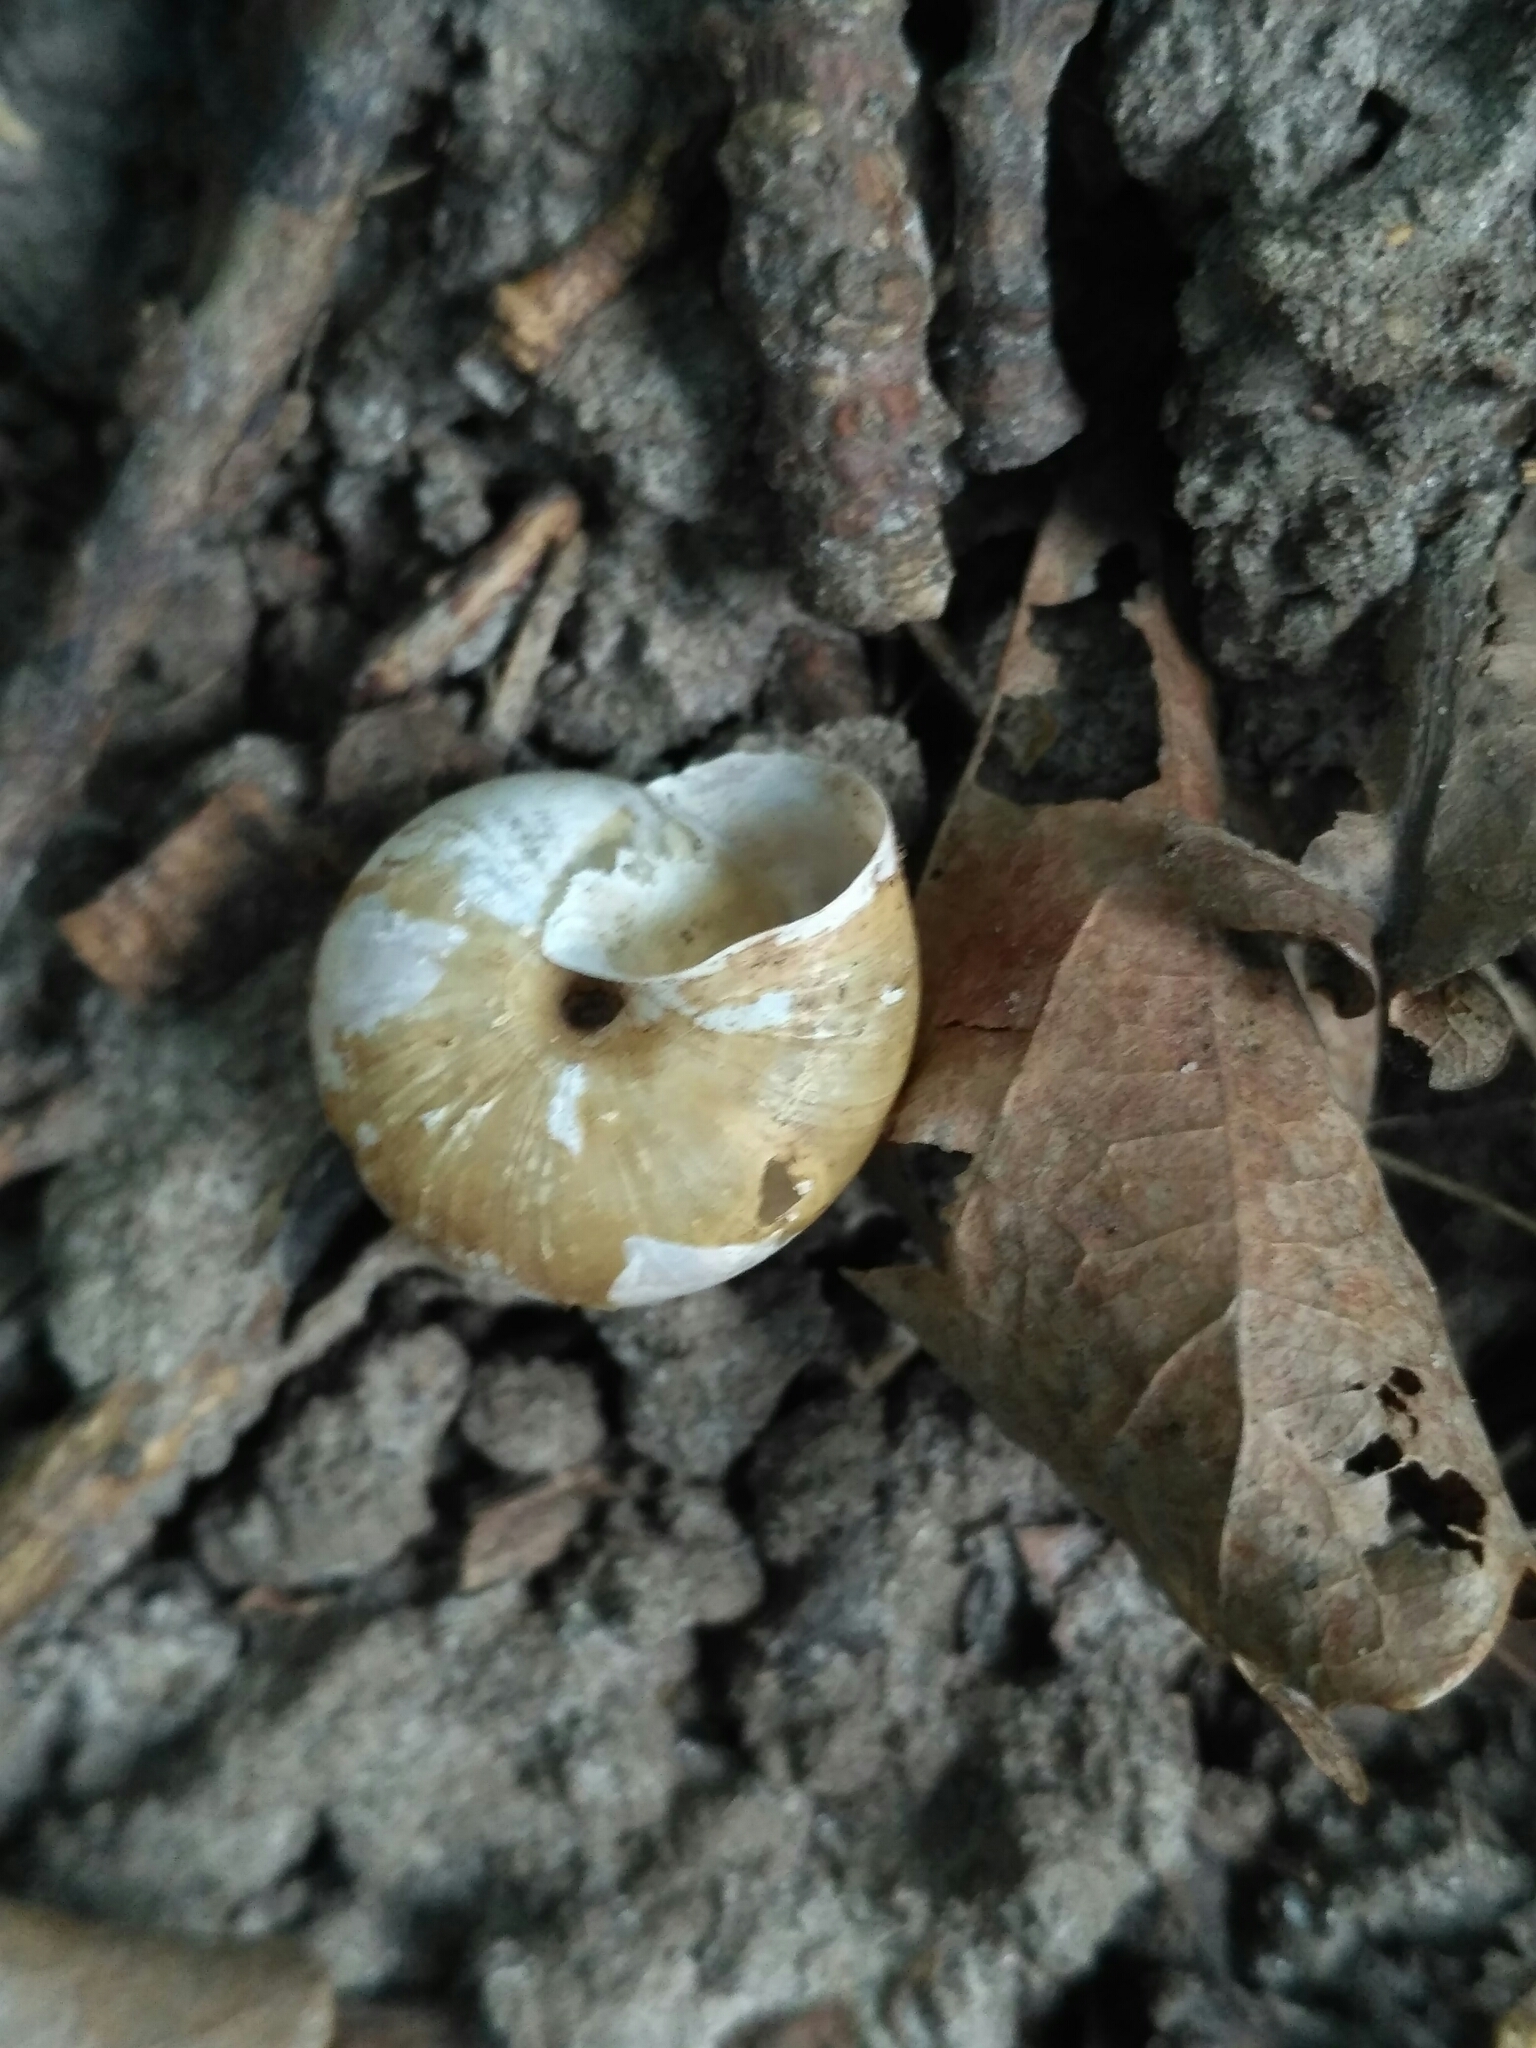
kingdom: Animalia
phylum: Mollusca
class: Gastropoda
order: Stylommatophora
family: Camaenidae
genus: Fruticicola
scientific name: Fruticicola fruticum
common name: Bush snail
